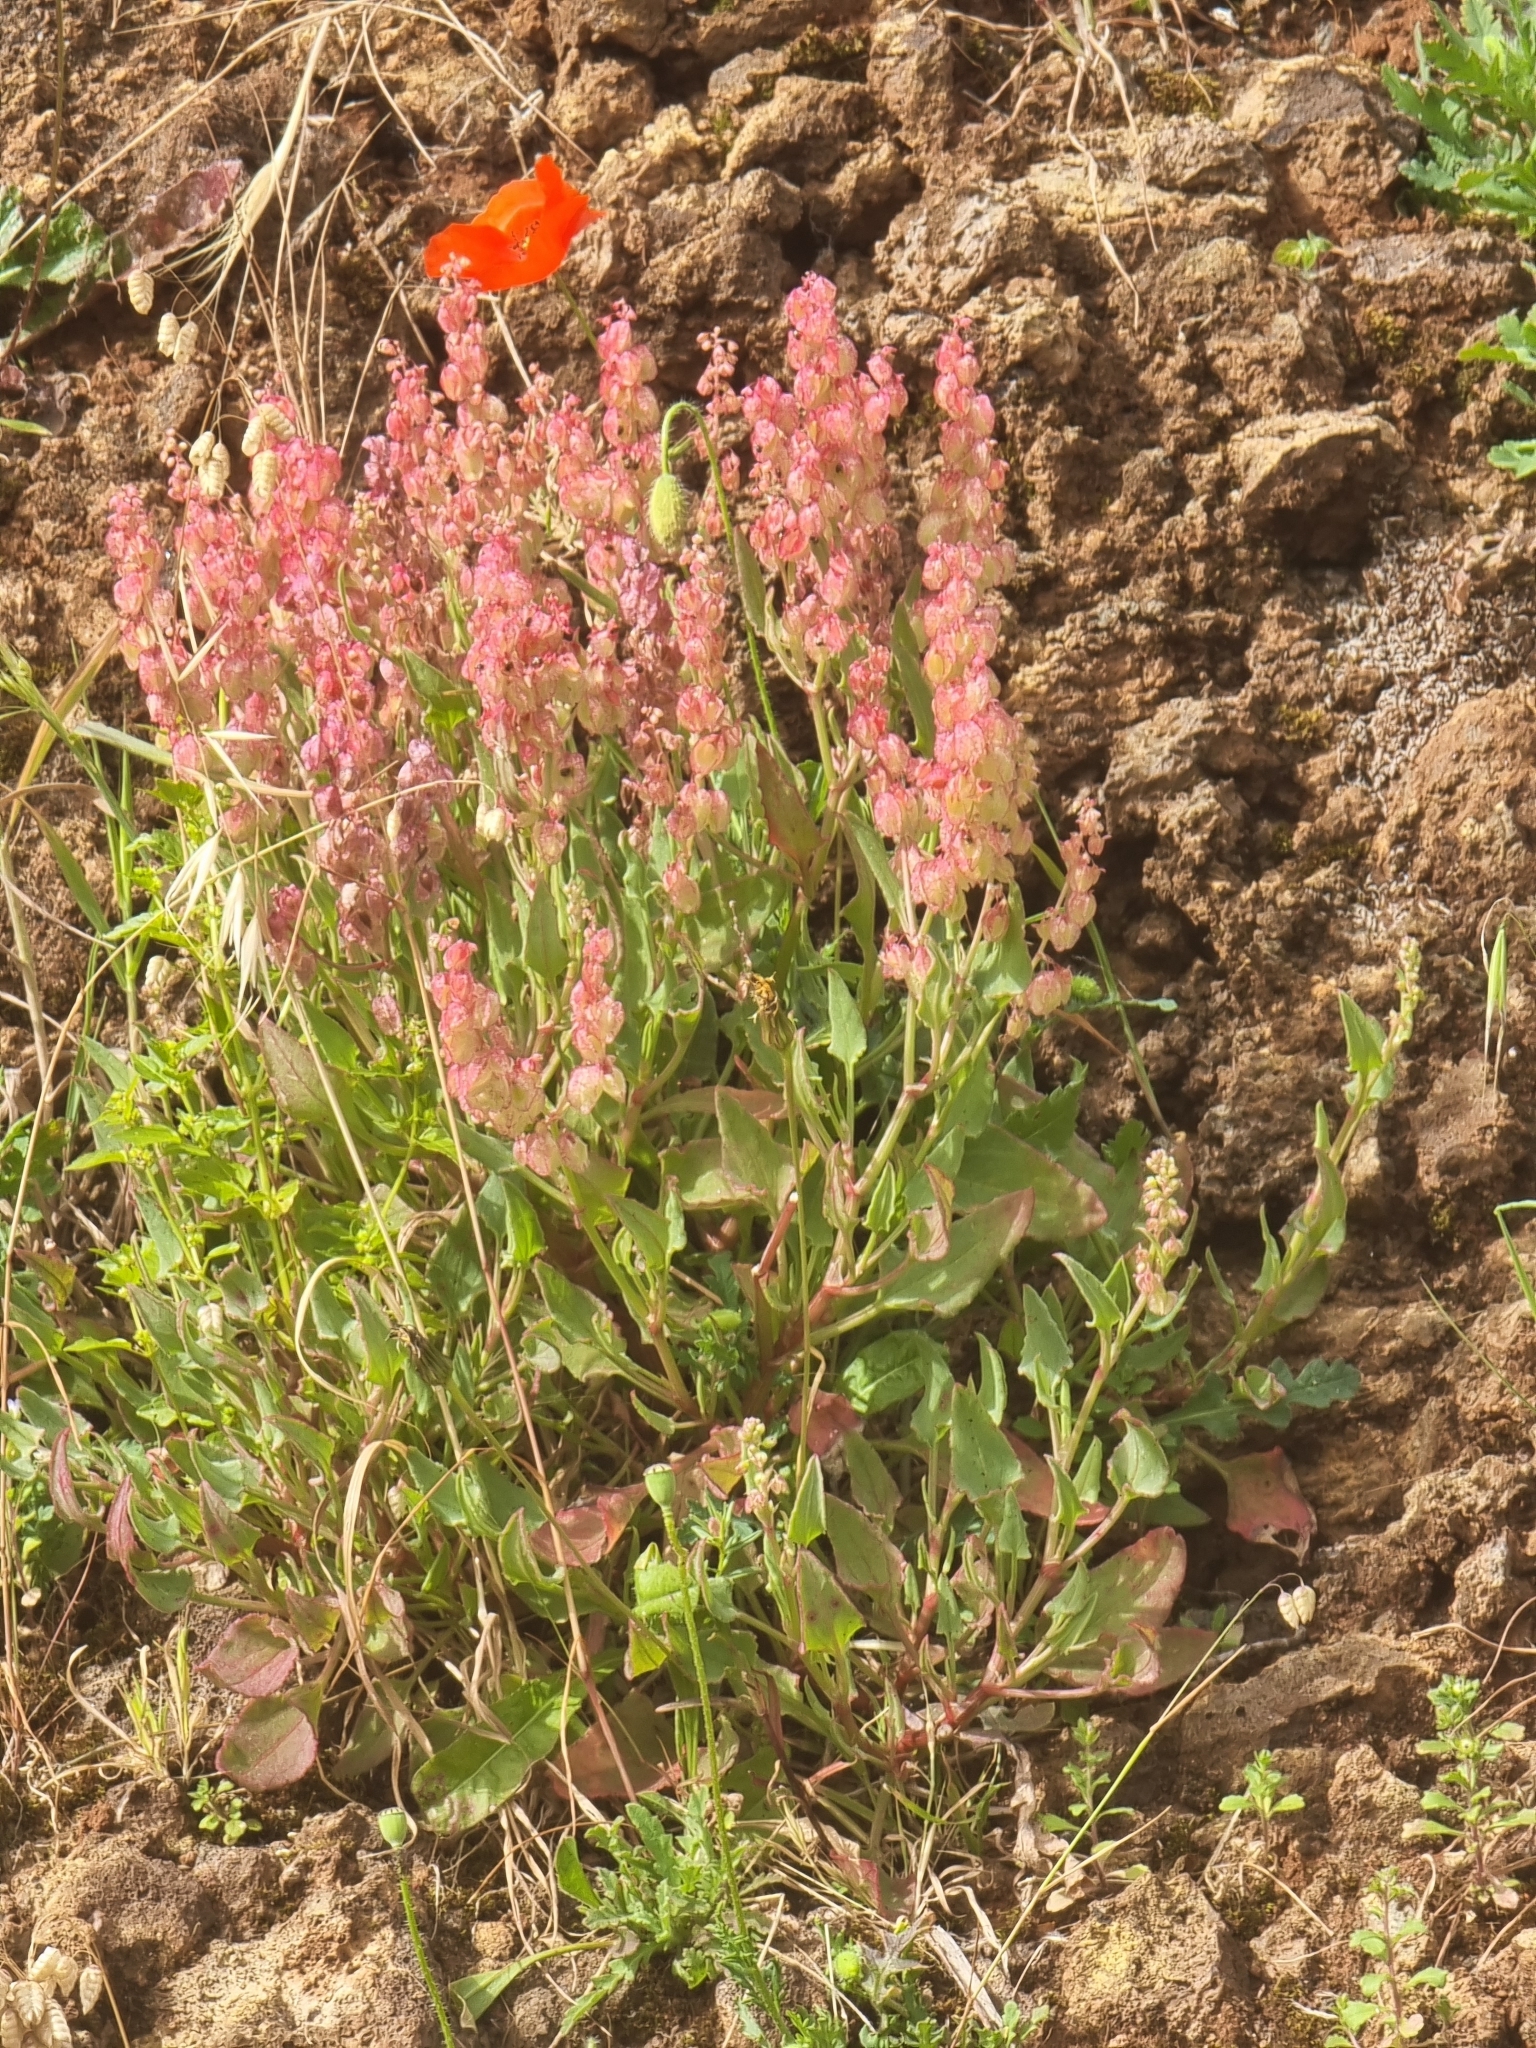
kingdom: Plantae
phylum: Tracheophyta
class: Magnoliopsida
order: Caryophyllales
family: Polygonaceae
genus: Rumex
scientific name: Rumex simpliciflorus
